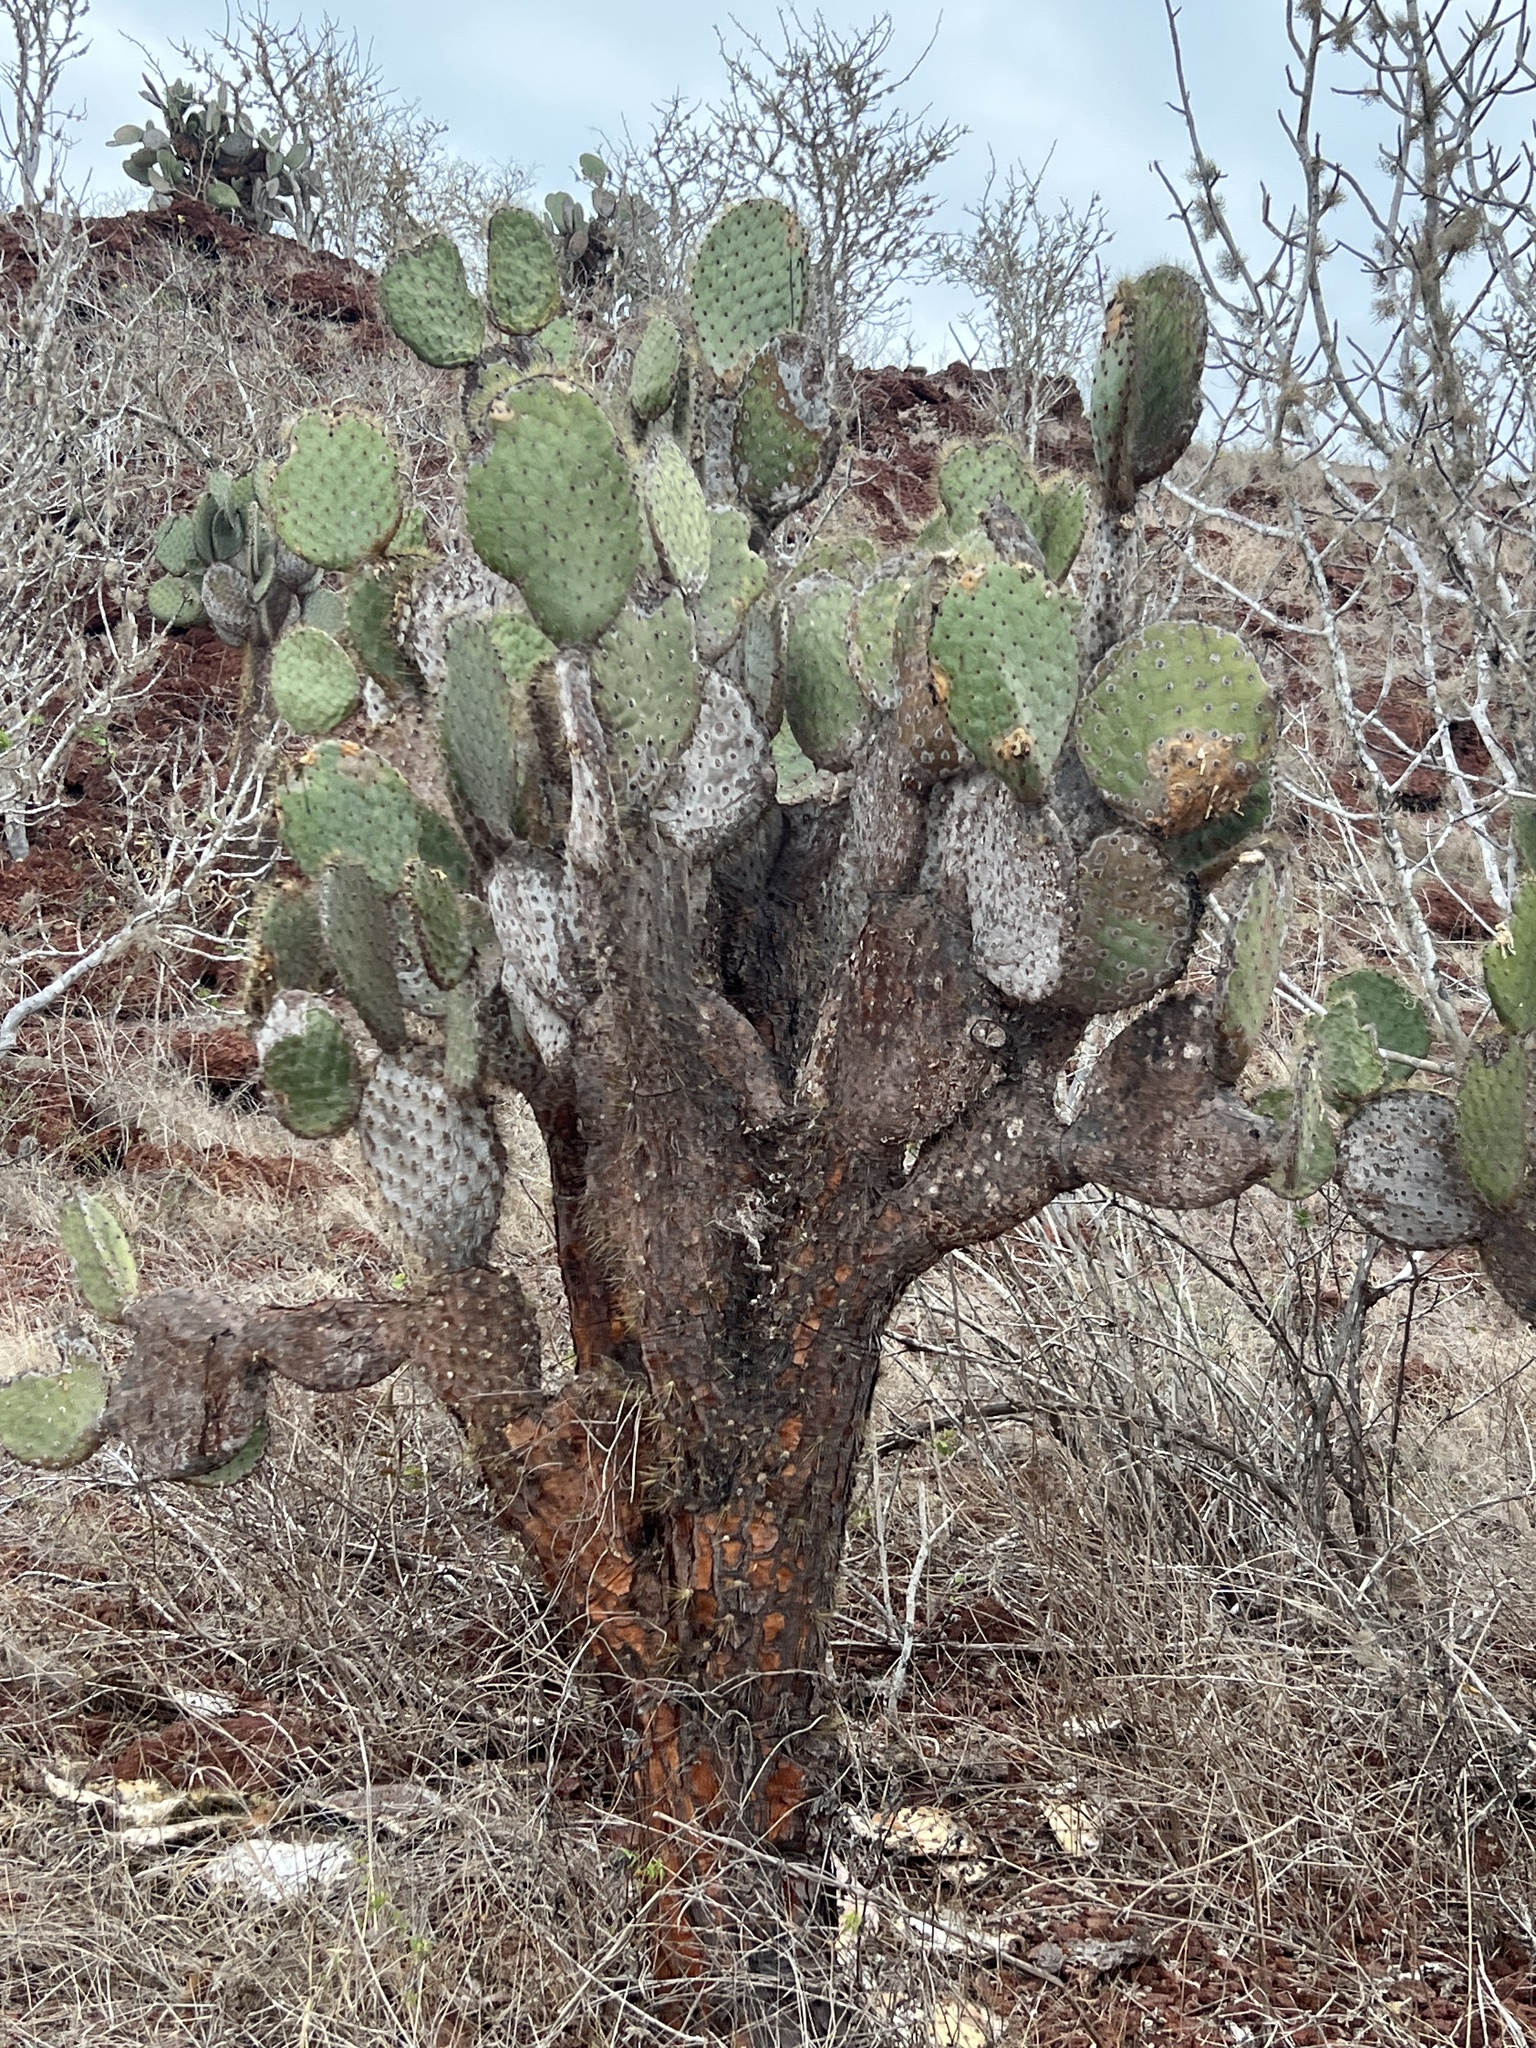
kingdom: Plantae
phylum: Tracheophyta
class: Magnoliopsida
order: Caryophyllales
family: Cactaceae
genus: Opuntia
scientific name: Opuntia galapageia
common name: Galápagos prickly pear
